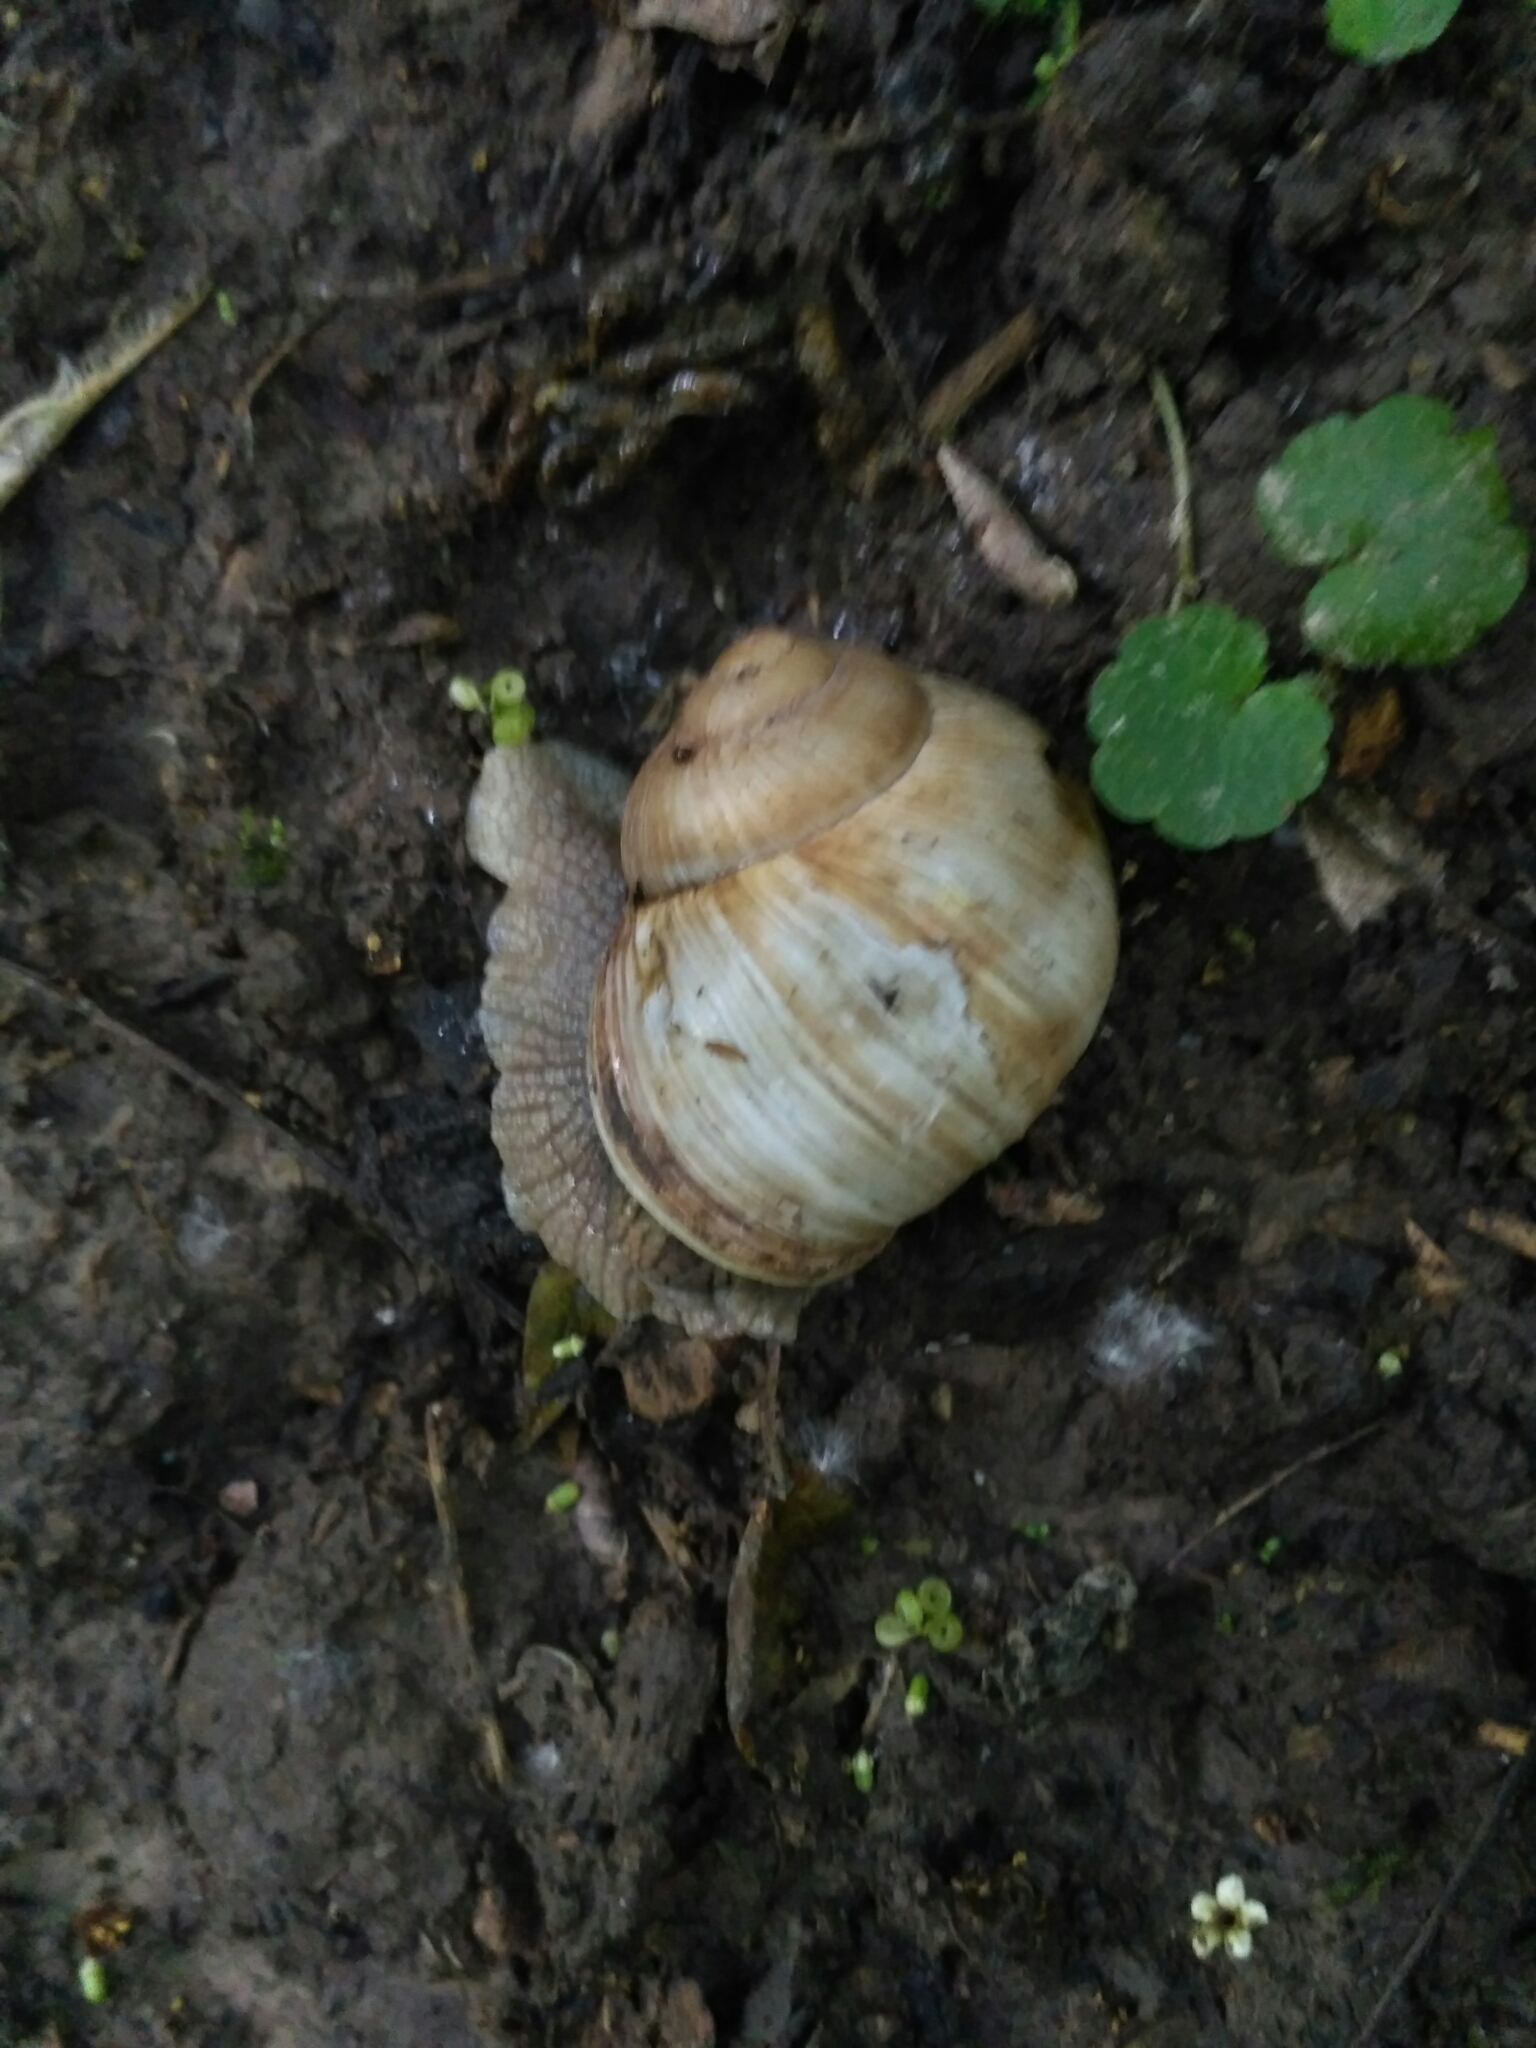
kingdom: Animalia
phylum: Mollusca
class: Gastropoda
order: Stylommatophora
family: Helicidae
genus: Helix
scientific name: Helix pomatia
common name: Roman snail
